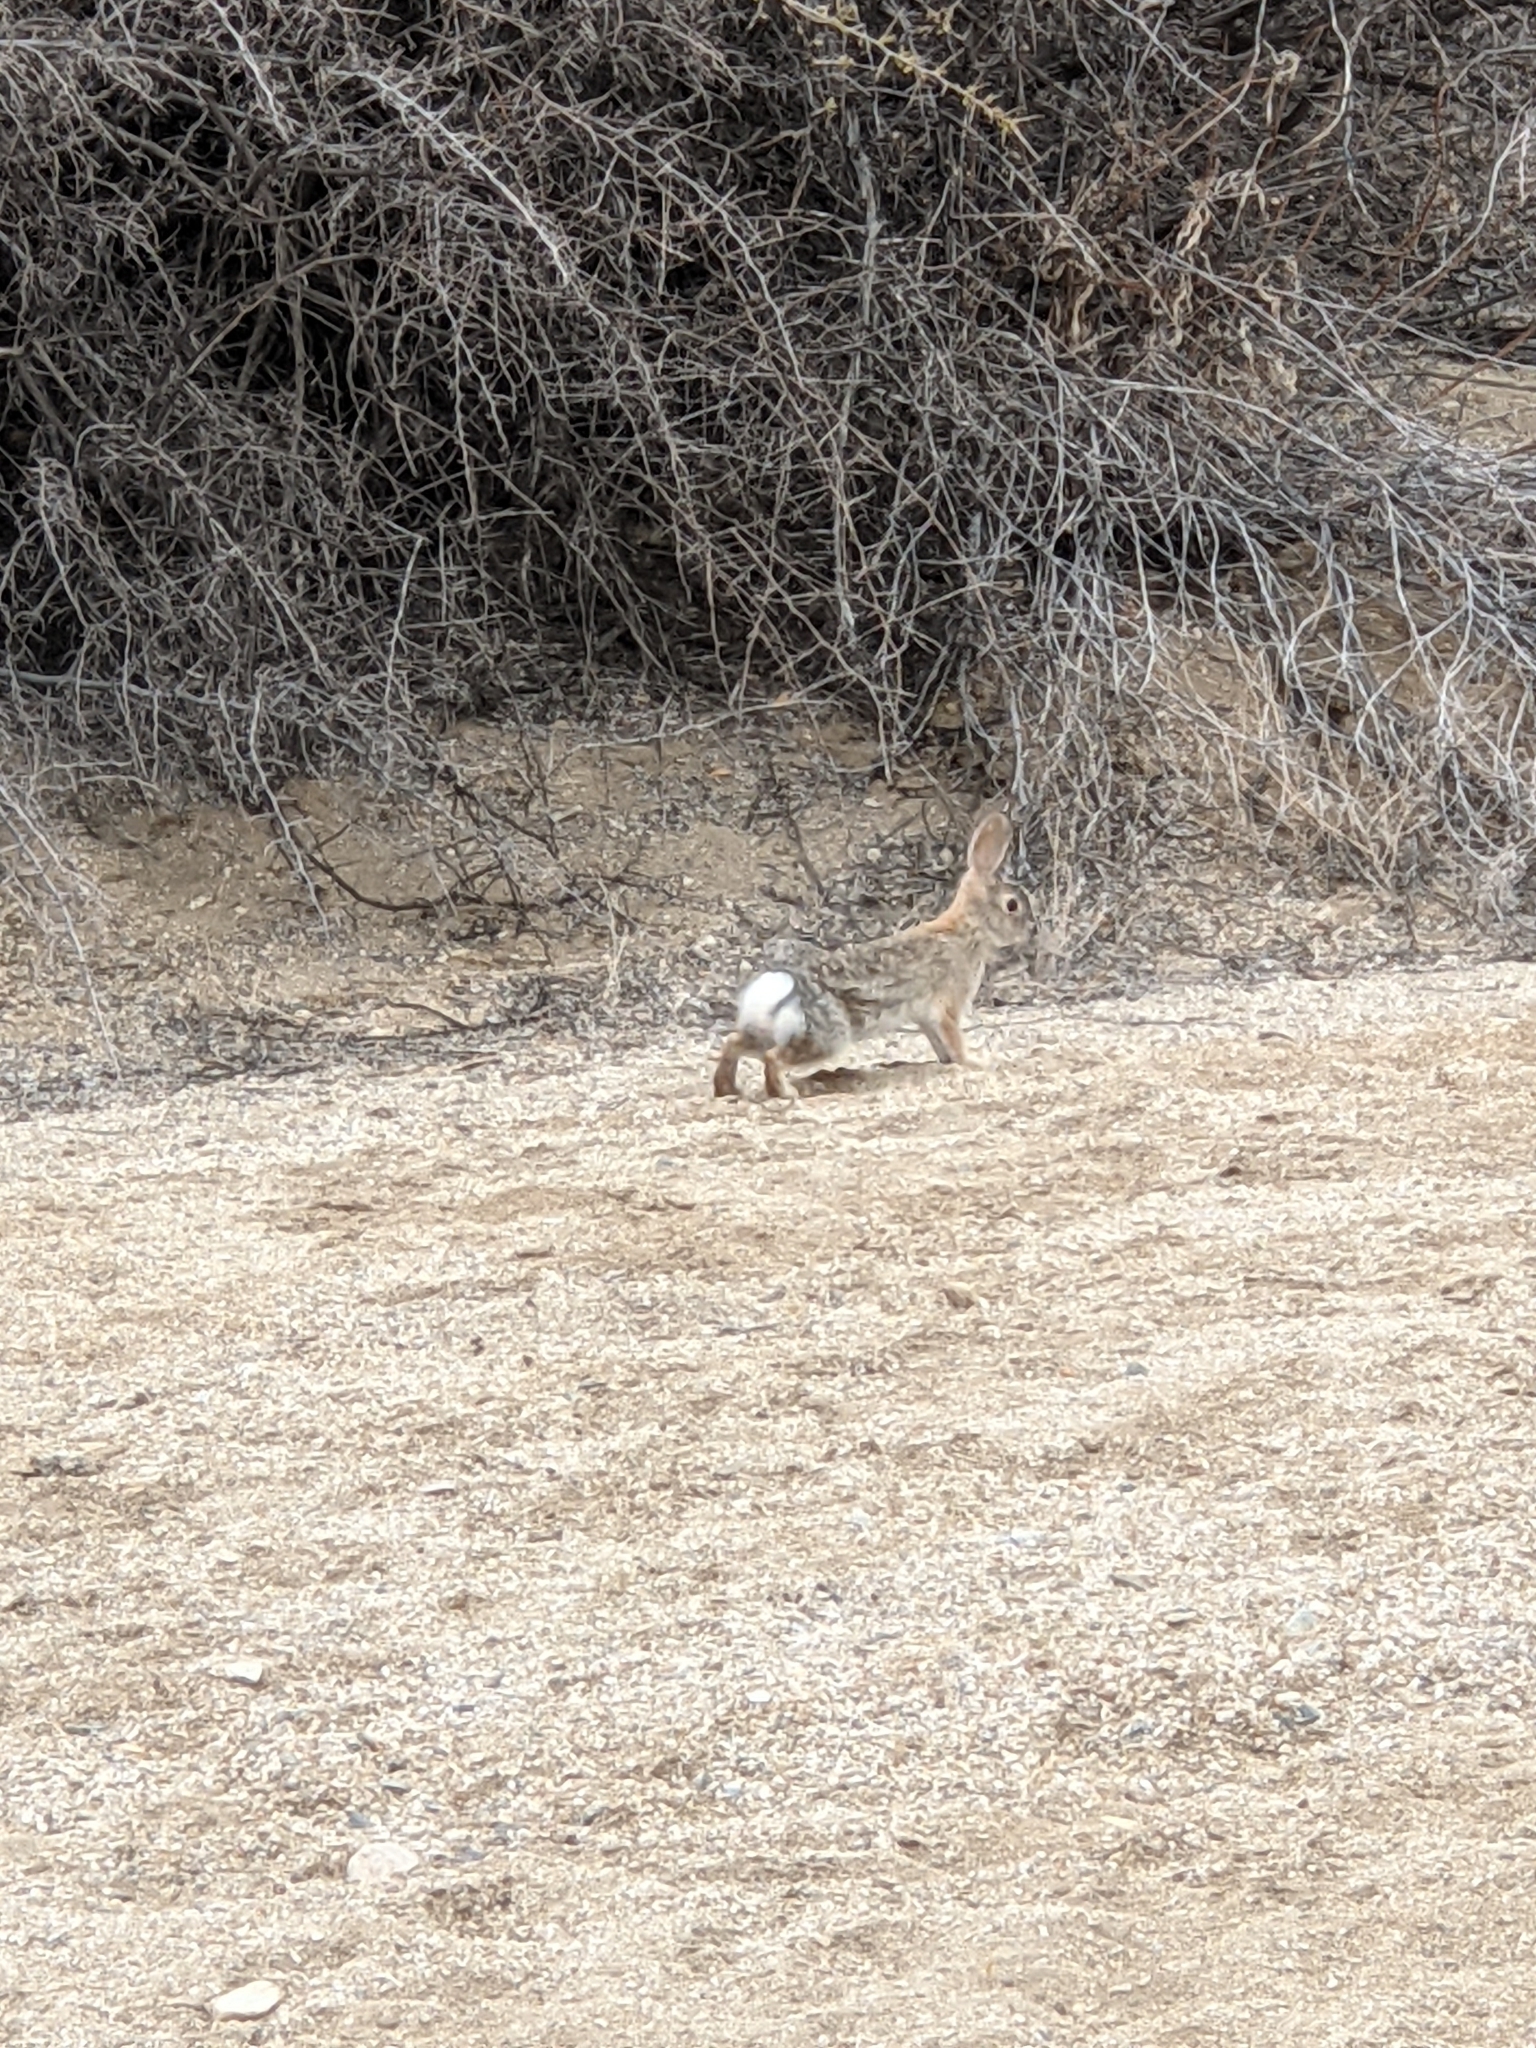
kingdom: Animalia
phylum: Chordata
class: Mammalia
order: Lagomorpha
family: Leporidae
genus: Sylvilagus
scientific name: Sylvilagus audubonii
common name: Desert cottontail
